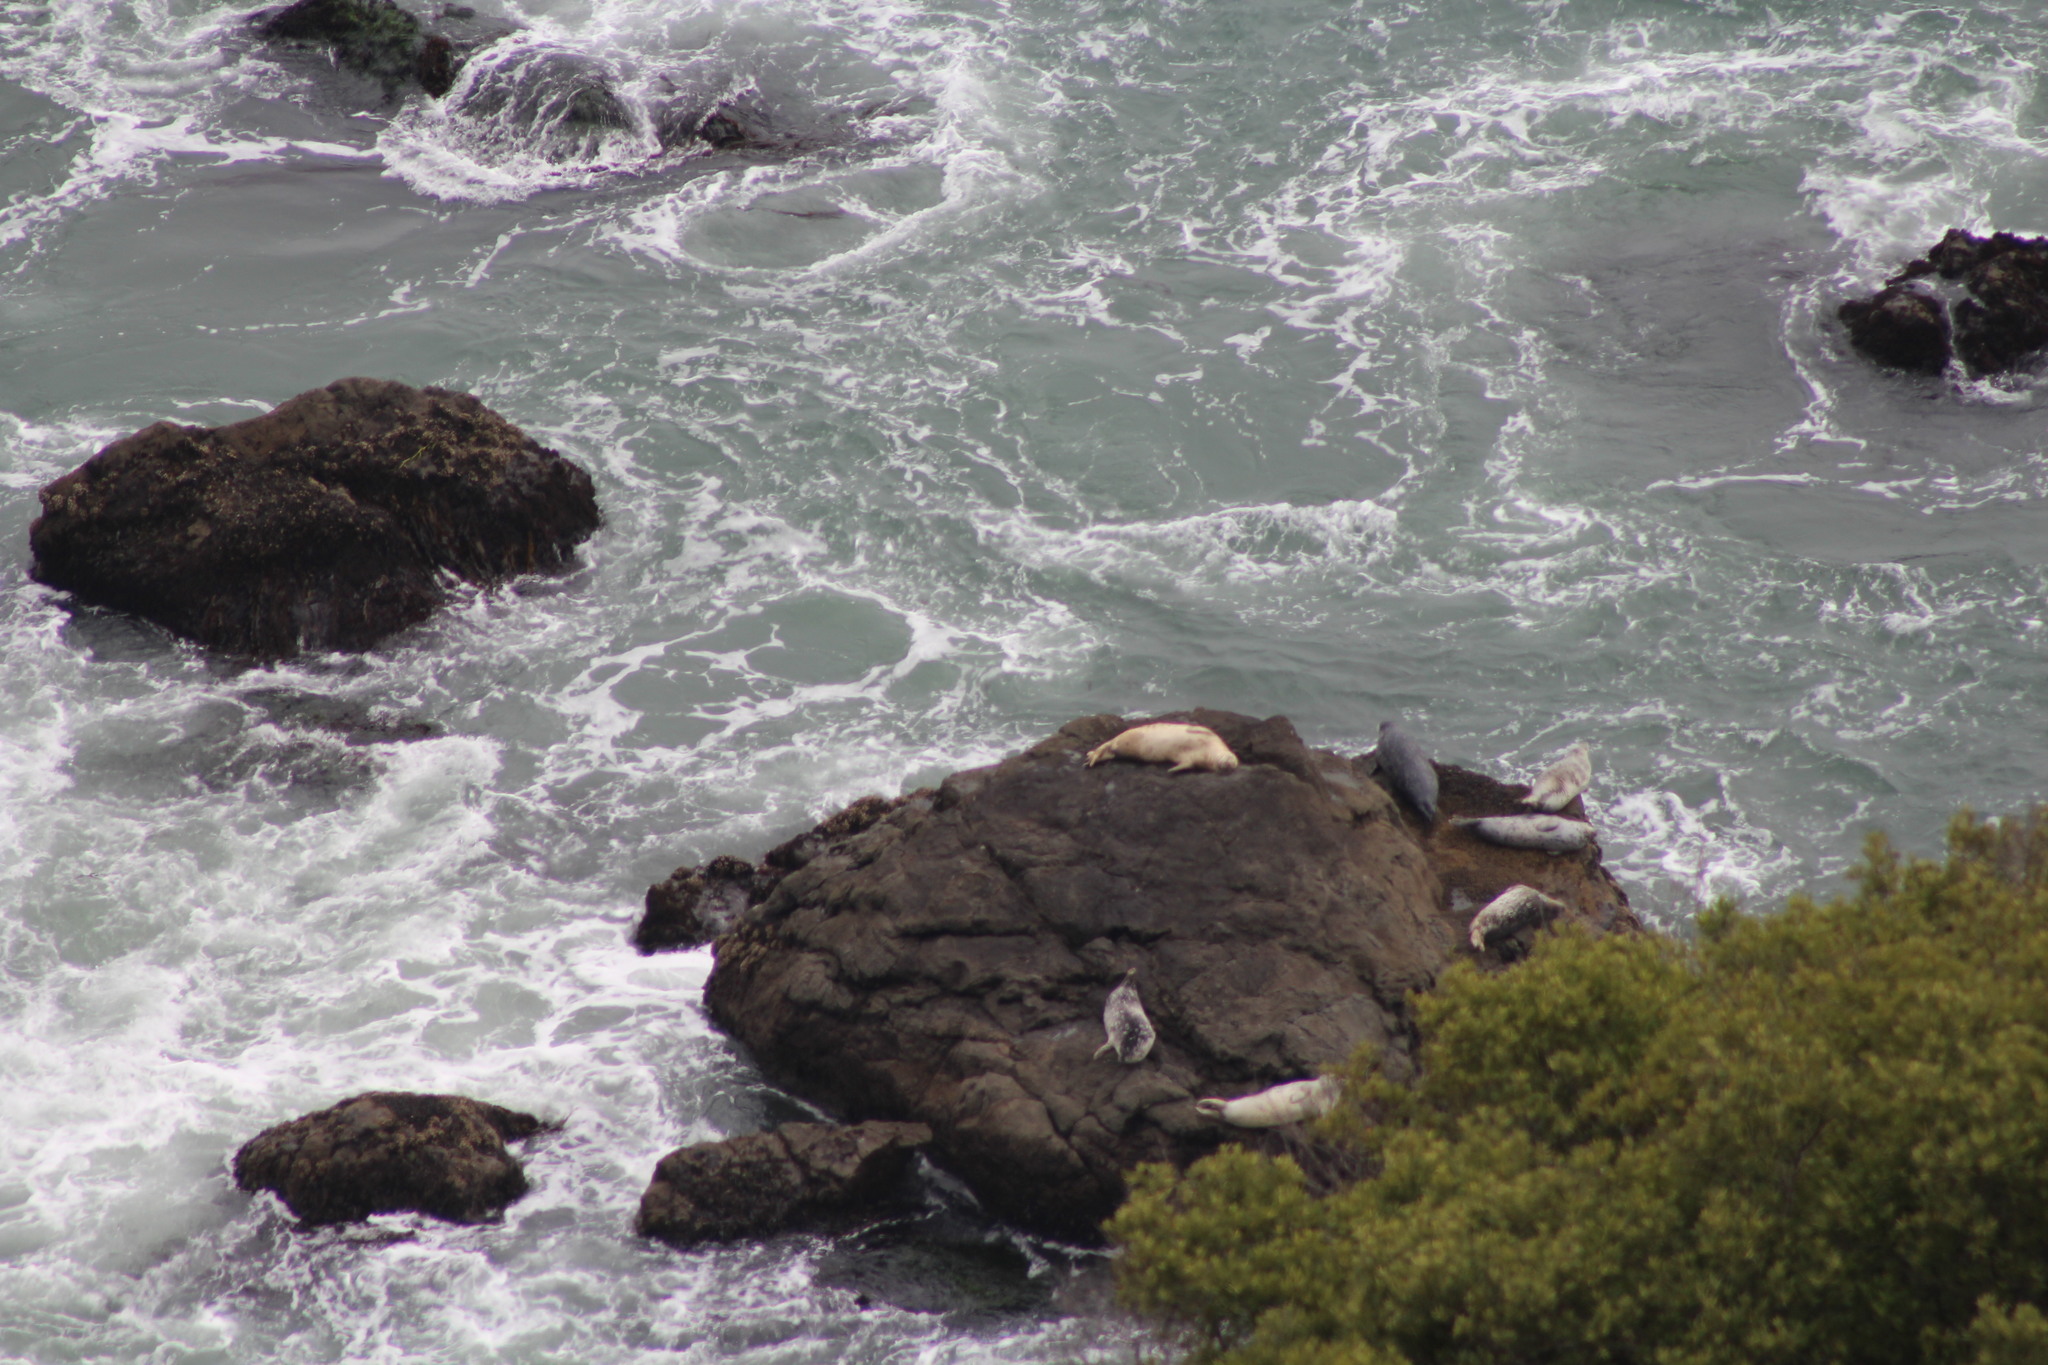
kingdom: Animalia
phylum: Chordata
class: Mammalia
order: Carnivora
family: Phocidae
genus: Phoca
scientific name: Phoca vitulina
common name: Harbor seal
